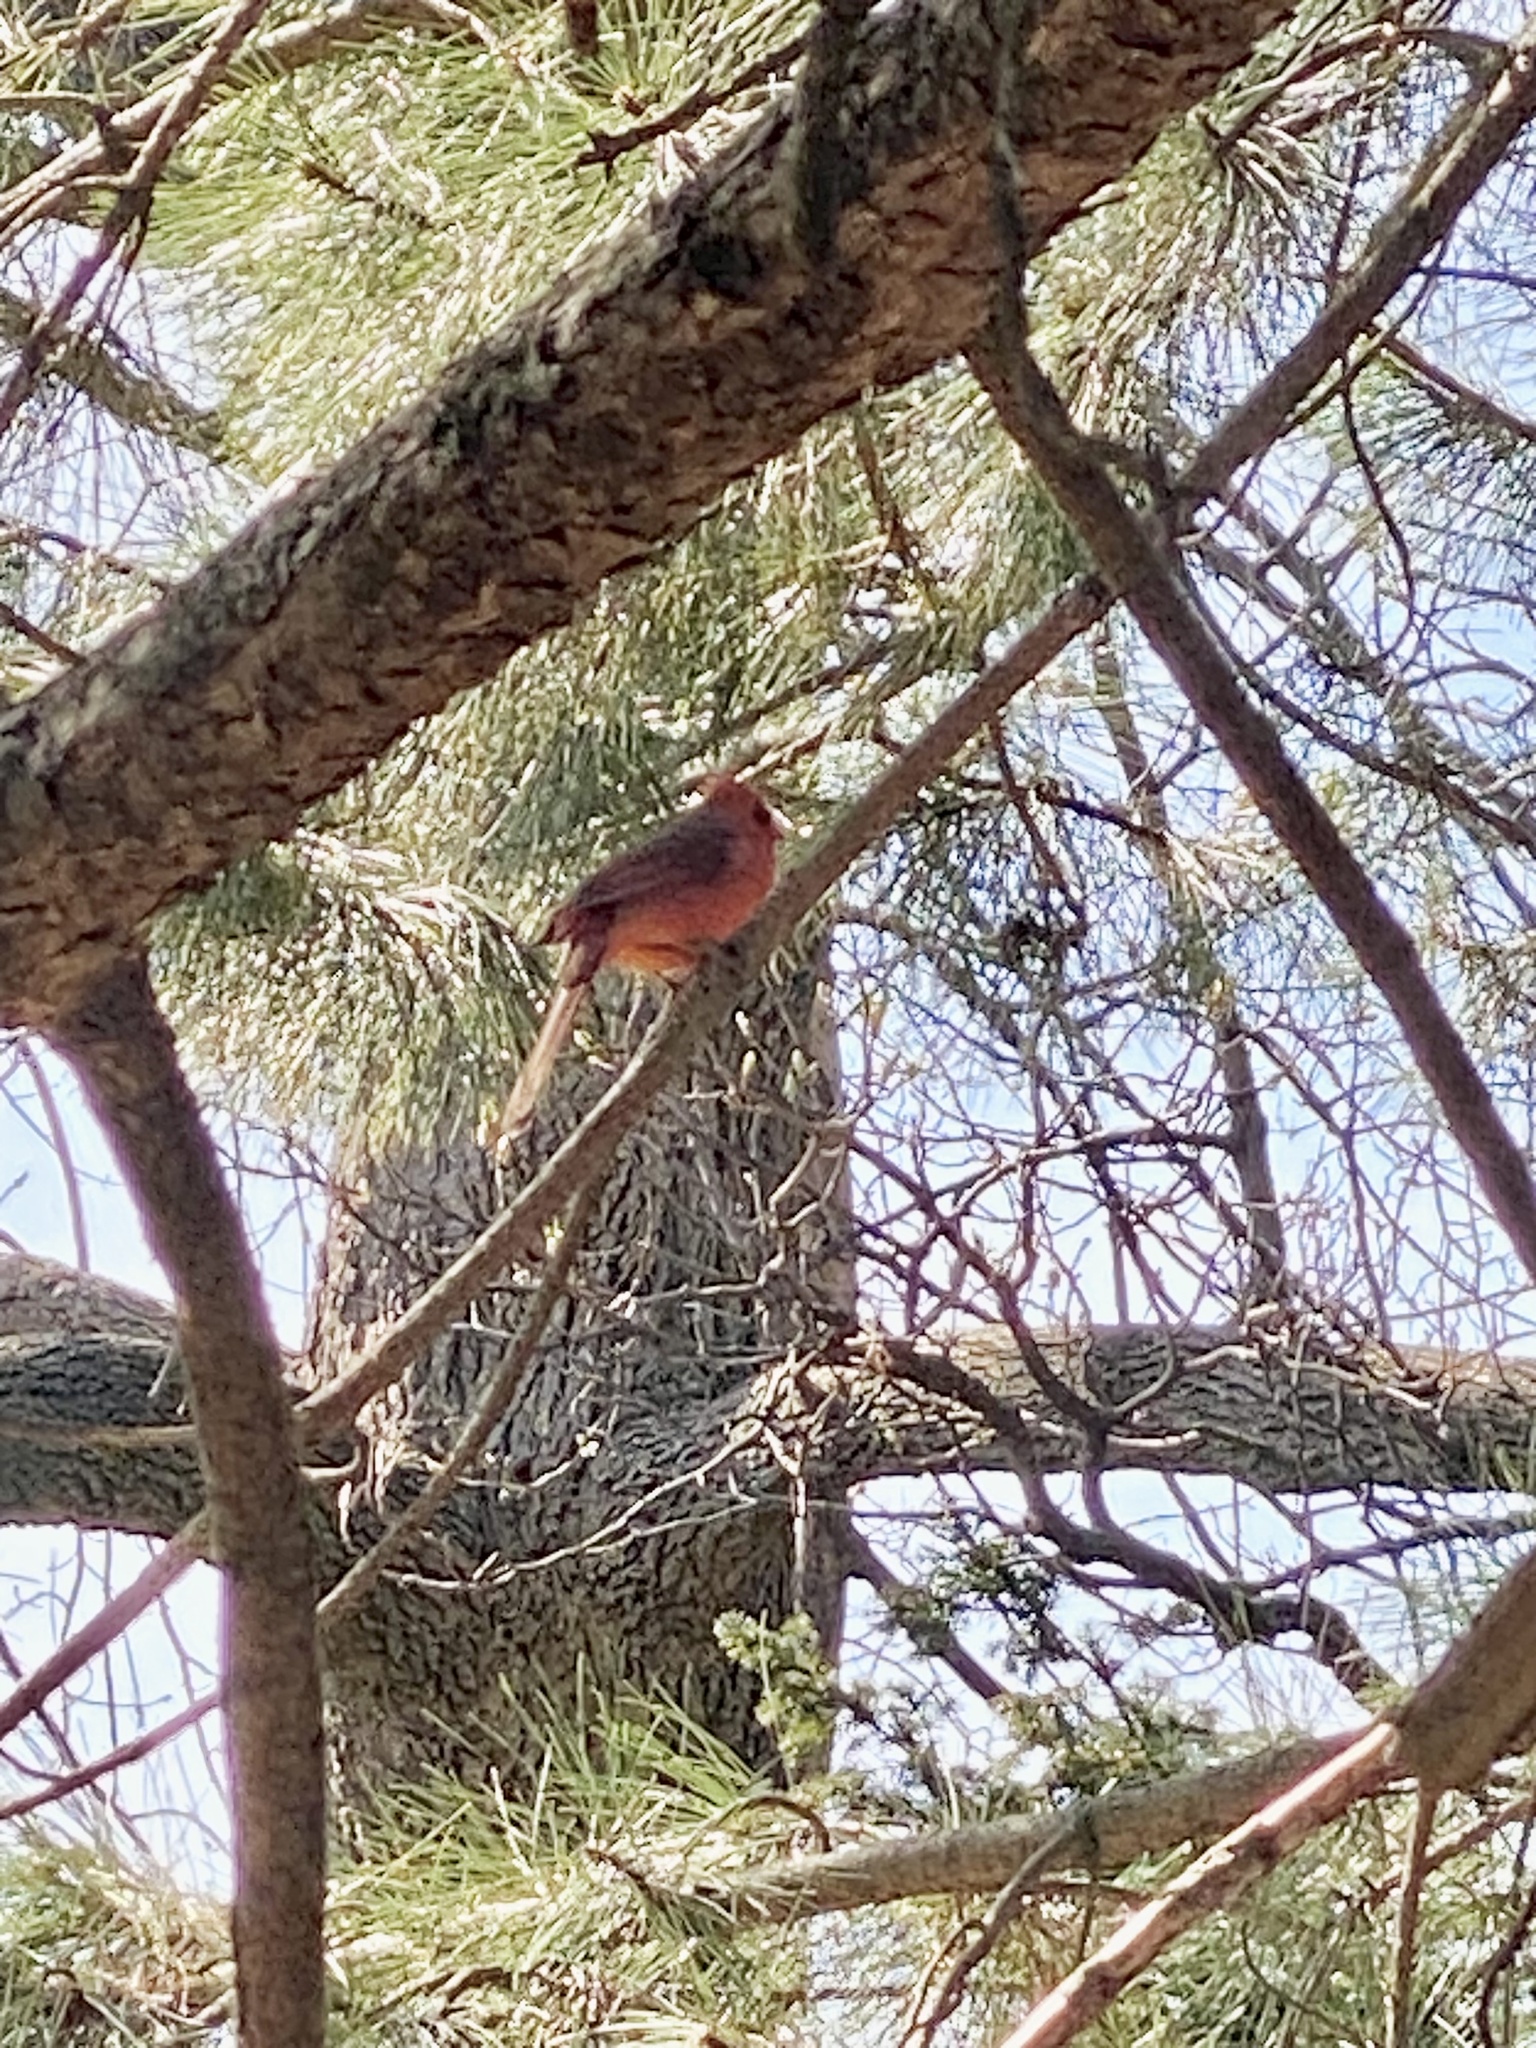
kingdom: Animalia
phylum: Chordata
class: Aves
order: Passeriformes
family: Cardinalidae
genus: Cardinalis
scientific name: Cardinalis cardinalis
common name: Northern cardinal
